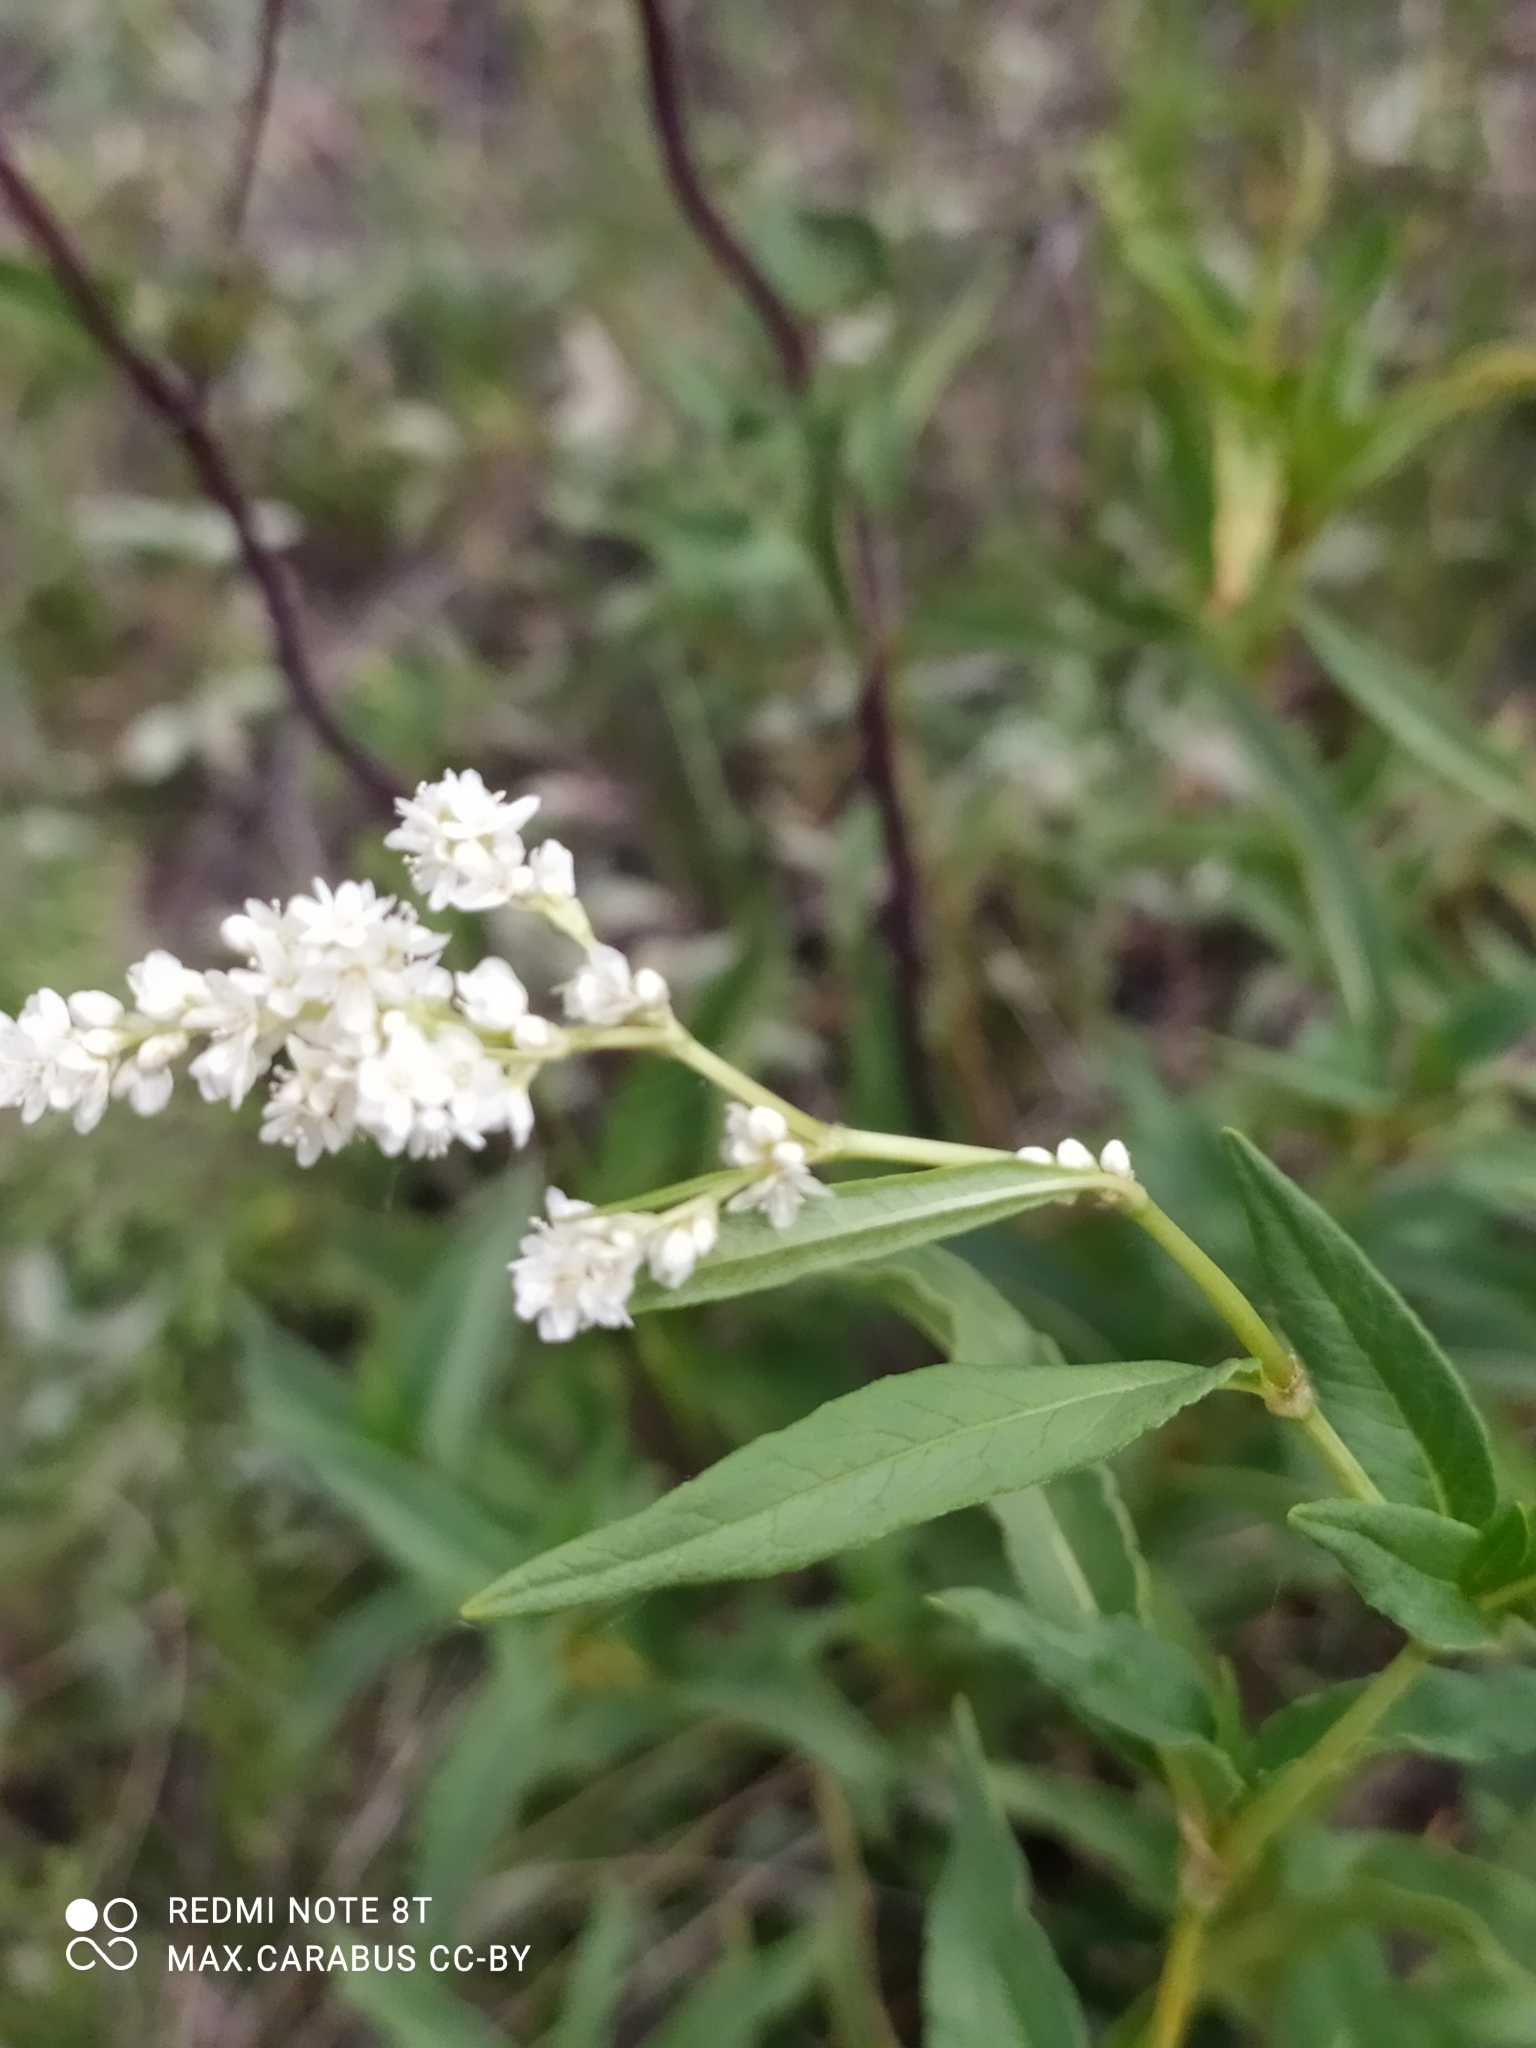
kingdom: Animalia
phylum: Arthropoda
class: Insecta
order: Coleoptera
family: Meloidae
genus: Mylabris
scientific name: Mylabris quadripunctata
